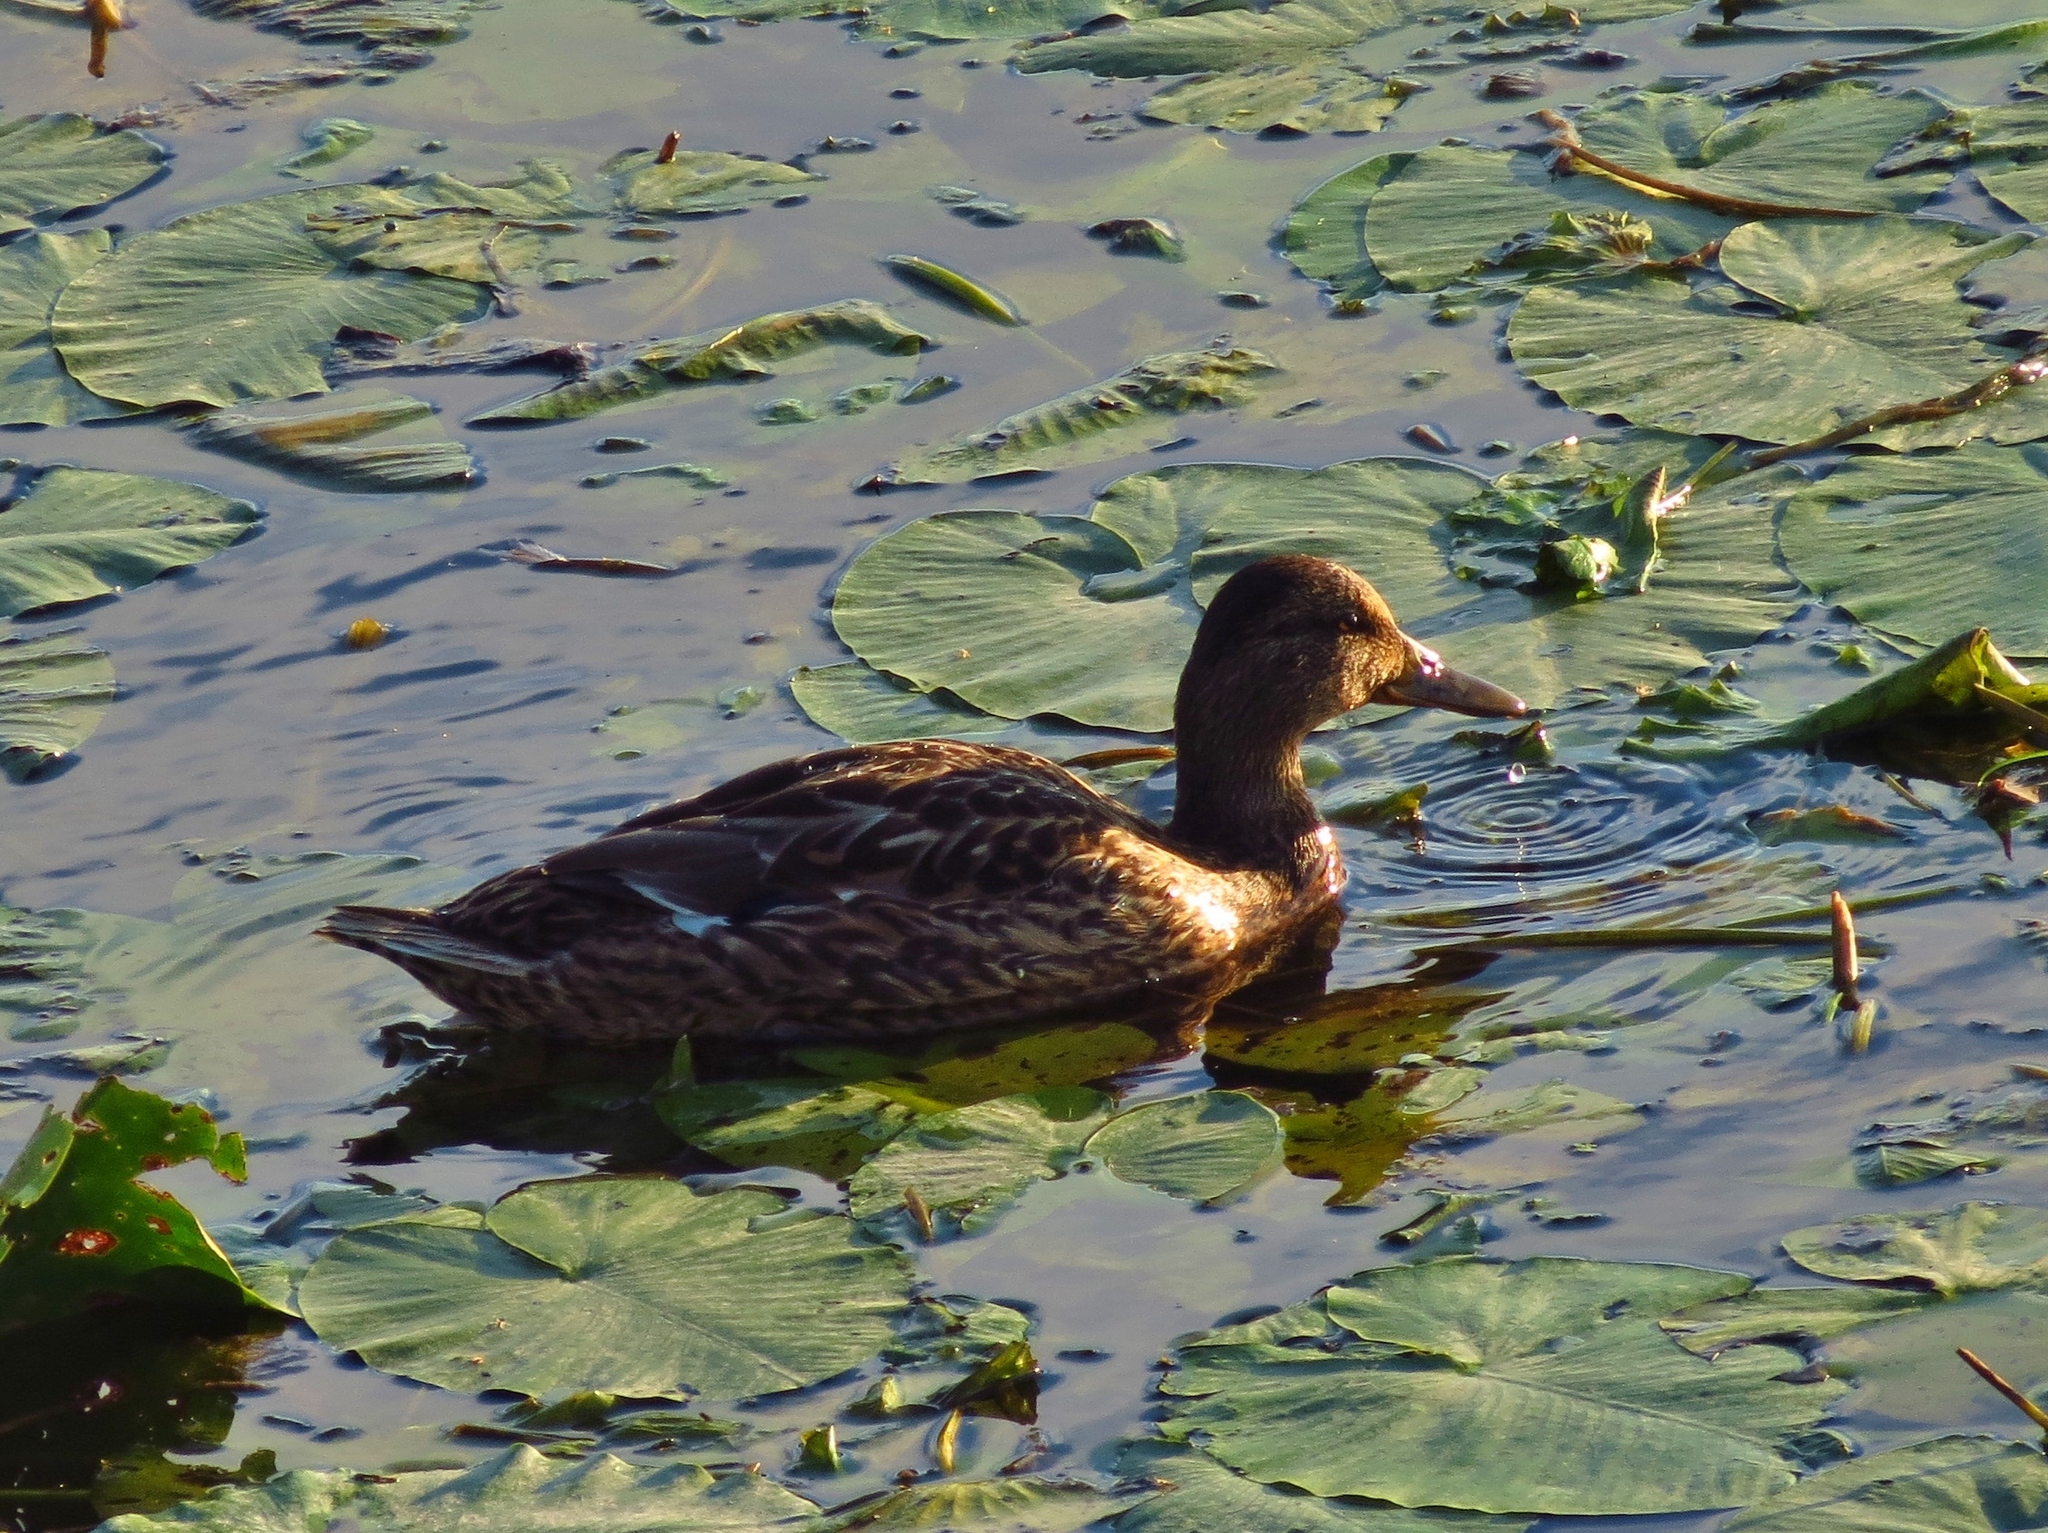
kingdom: Animalia
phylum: Chordata
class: Aves
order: Anseriformes
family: Anatidae
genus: Anas
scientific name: Anas platyrhynchos
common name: Mallard
